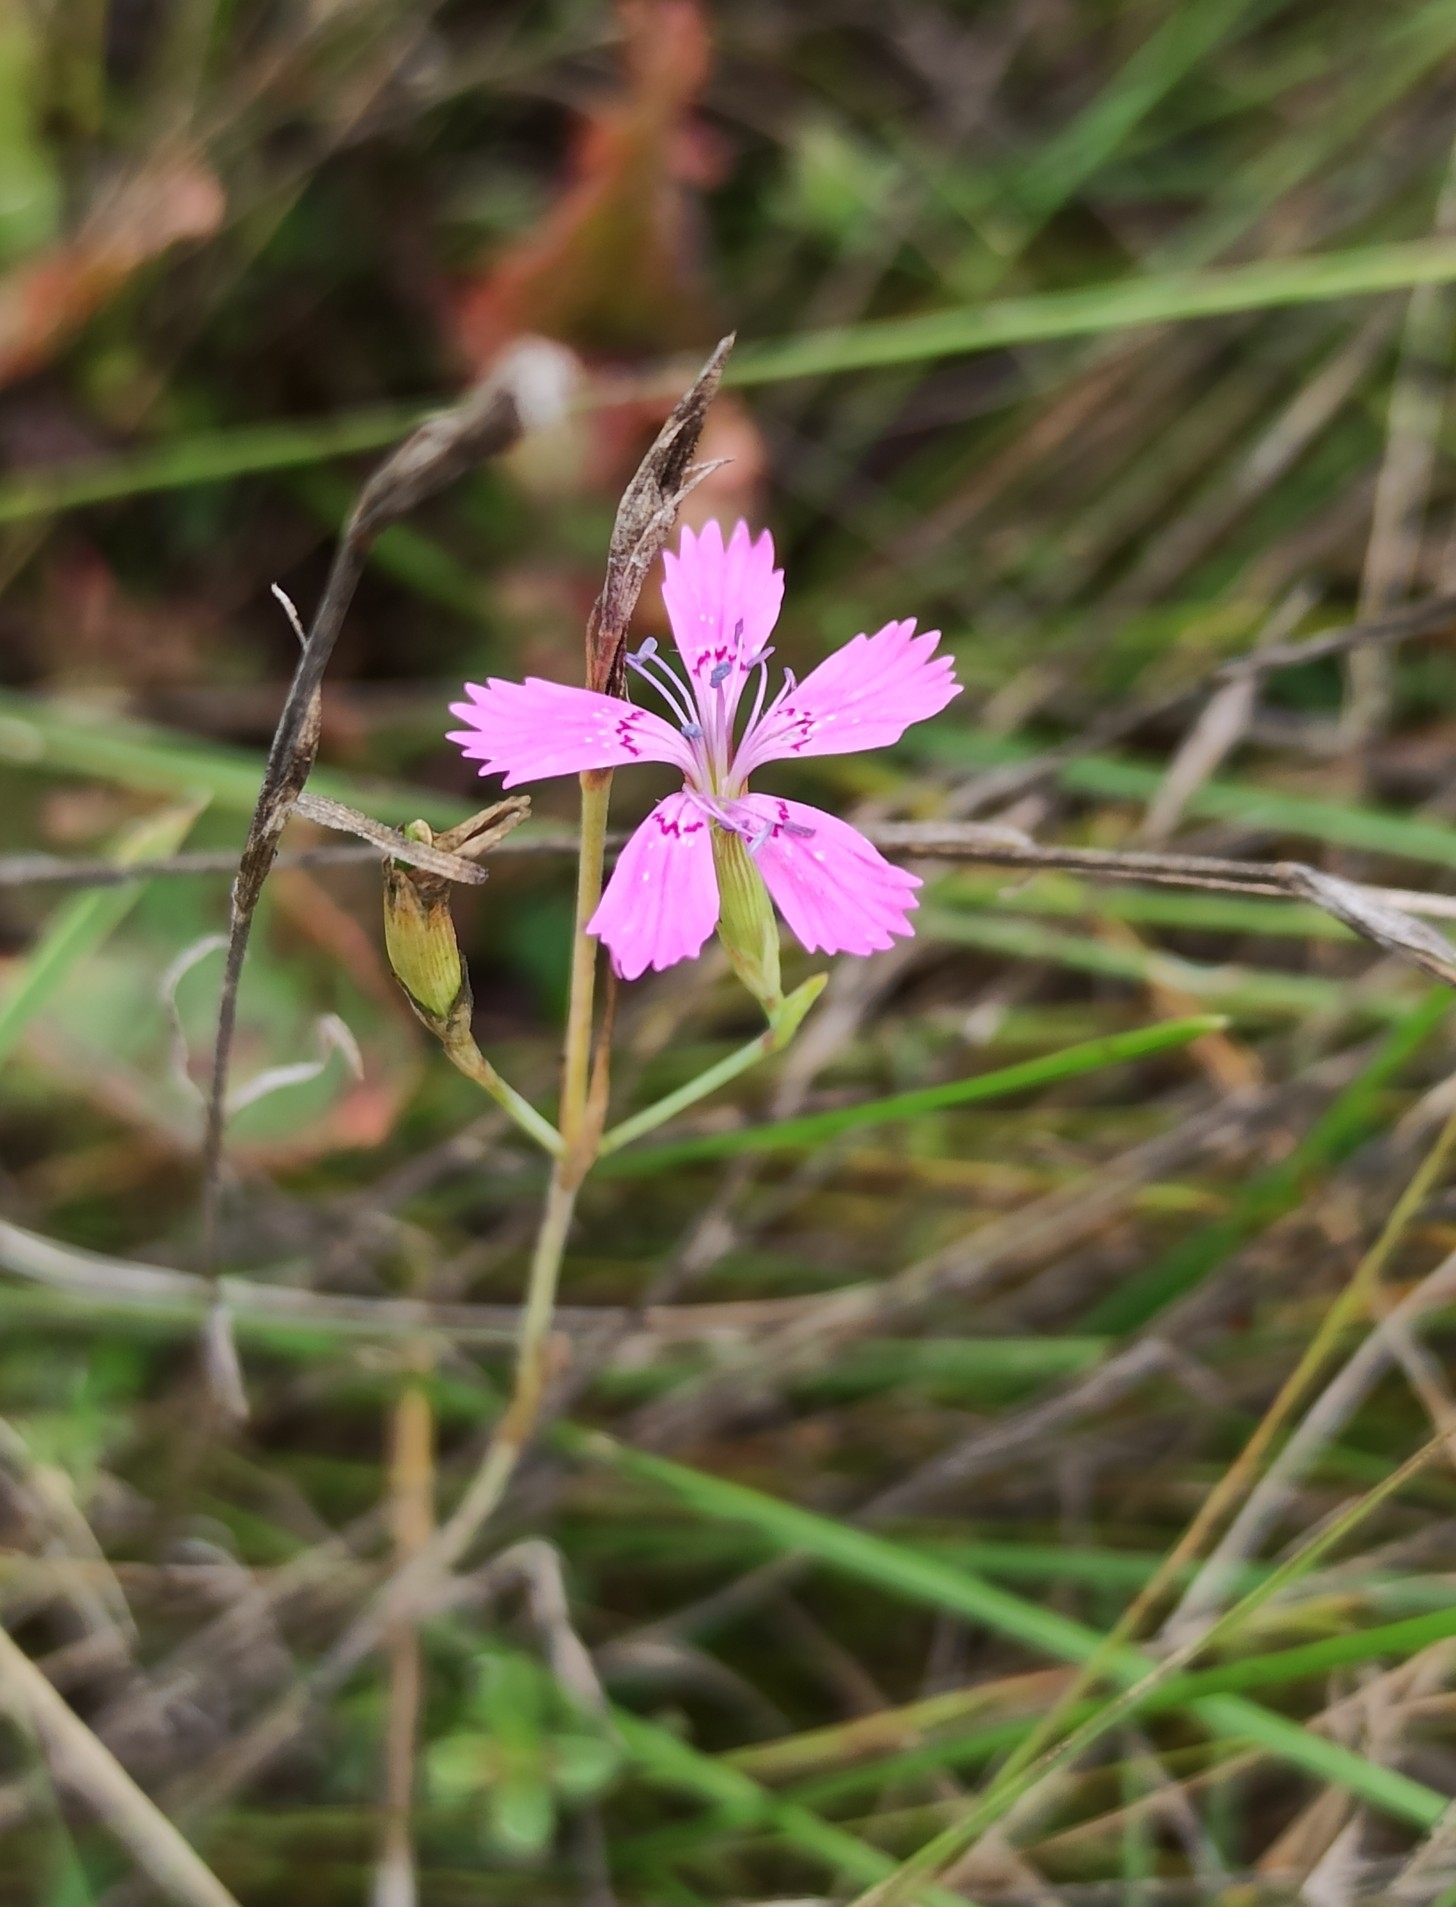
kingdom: Plantae
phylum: Tracheophyta
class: Magnoliopsida
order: Caryophyllales
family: Caryophyllaceae
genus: Dianthus
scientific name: Dianthus deltoides
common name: Maiden pink
